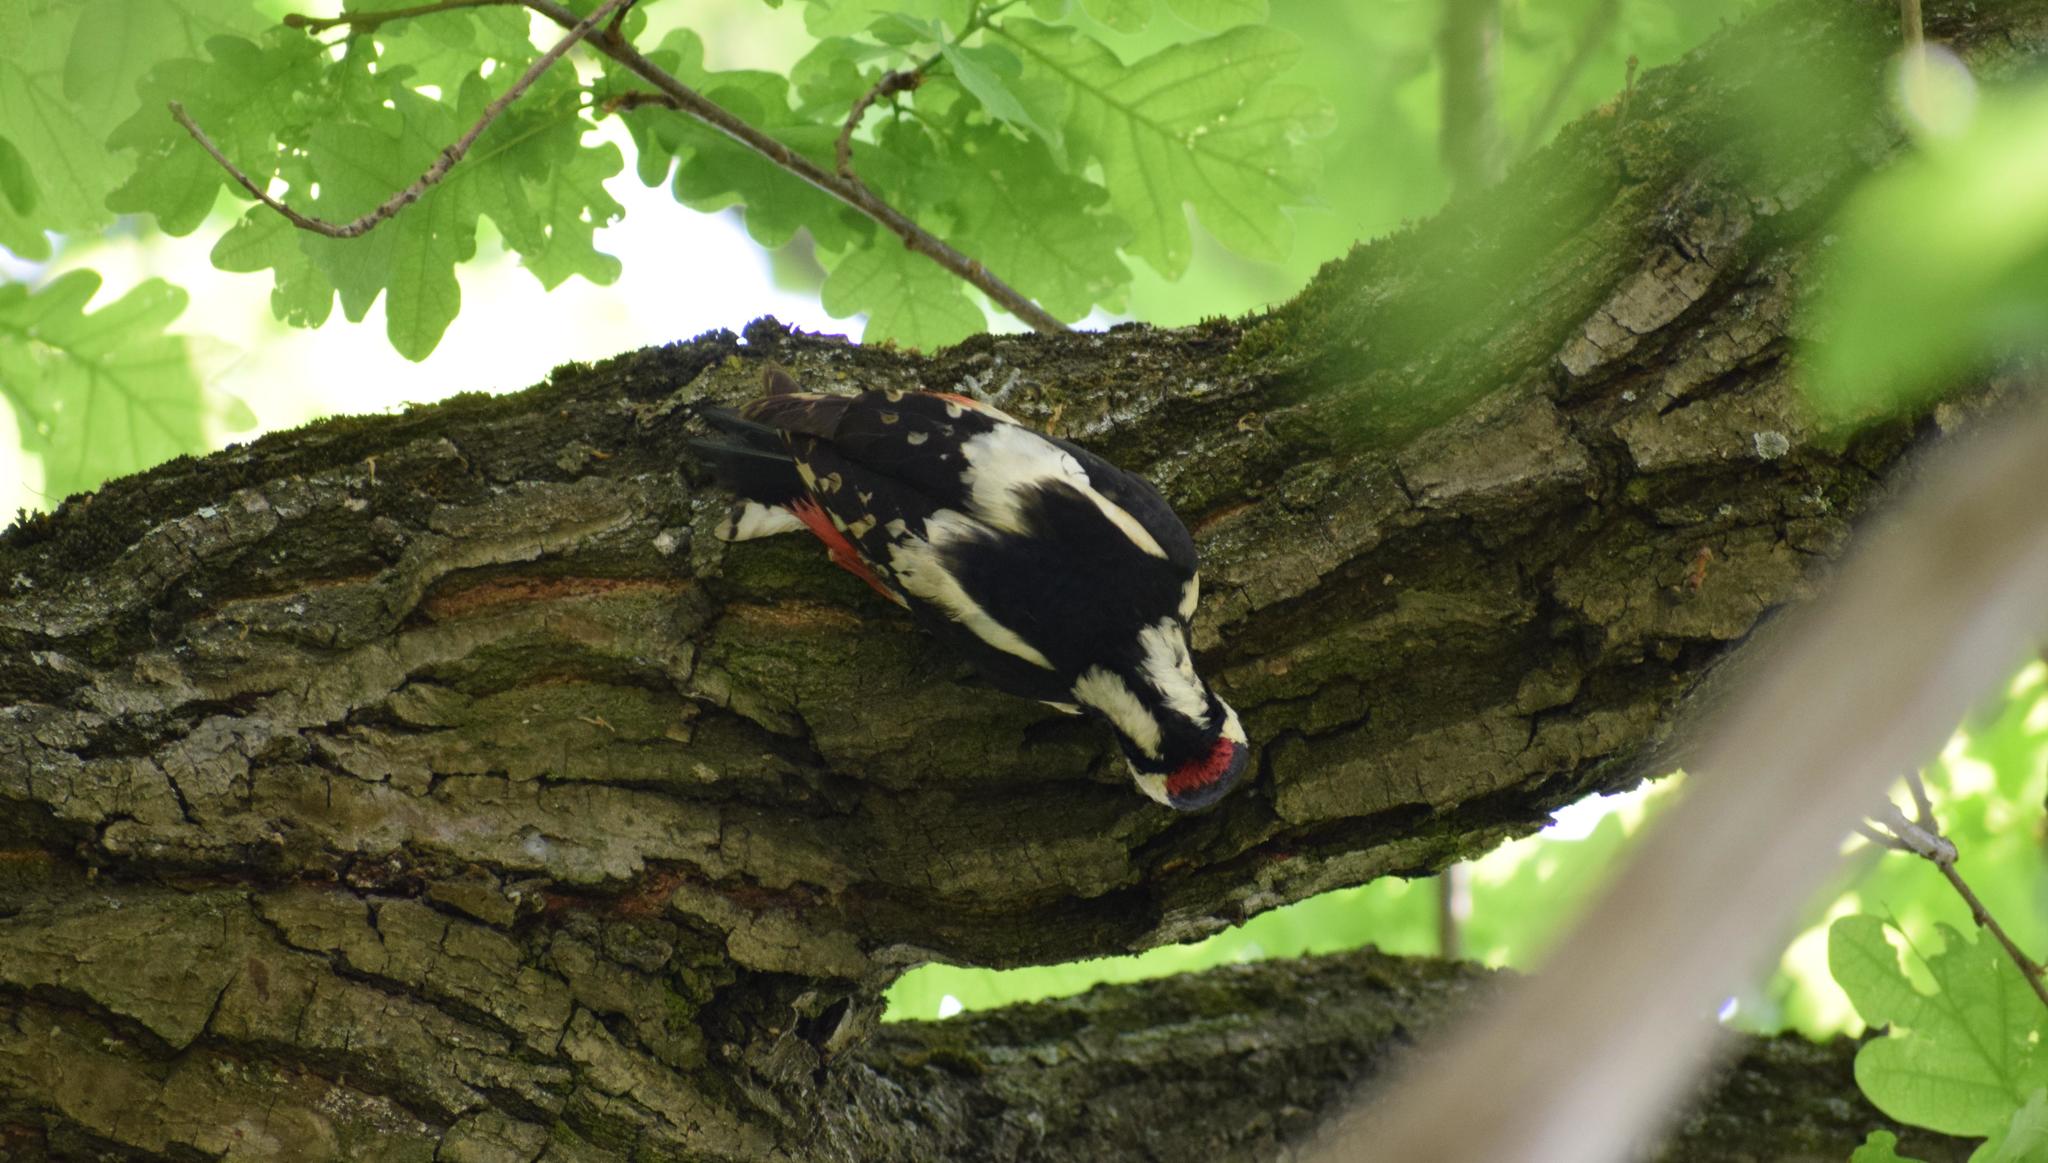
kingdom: Animalia
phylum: Chordata
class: Aves
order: Piciformes
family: Picidae
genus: Dendrocopos
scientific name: Dendrocopos major
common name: Great spotted woodpecker
